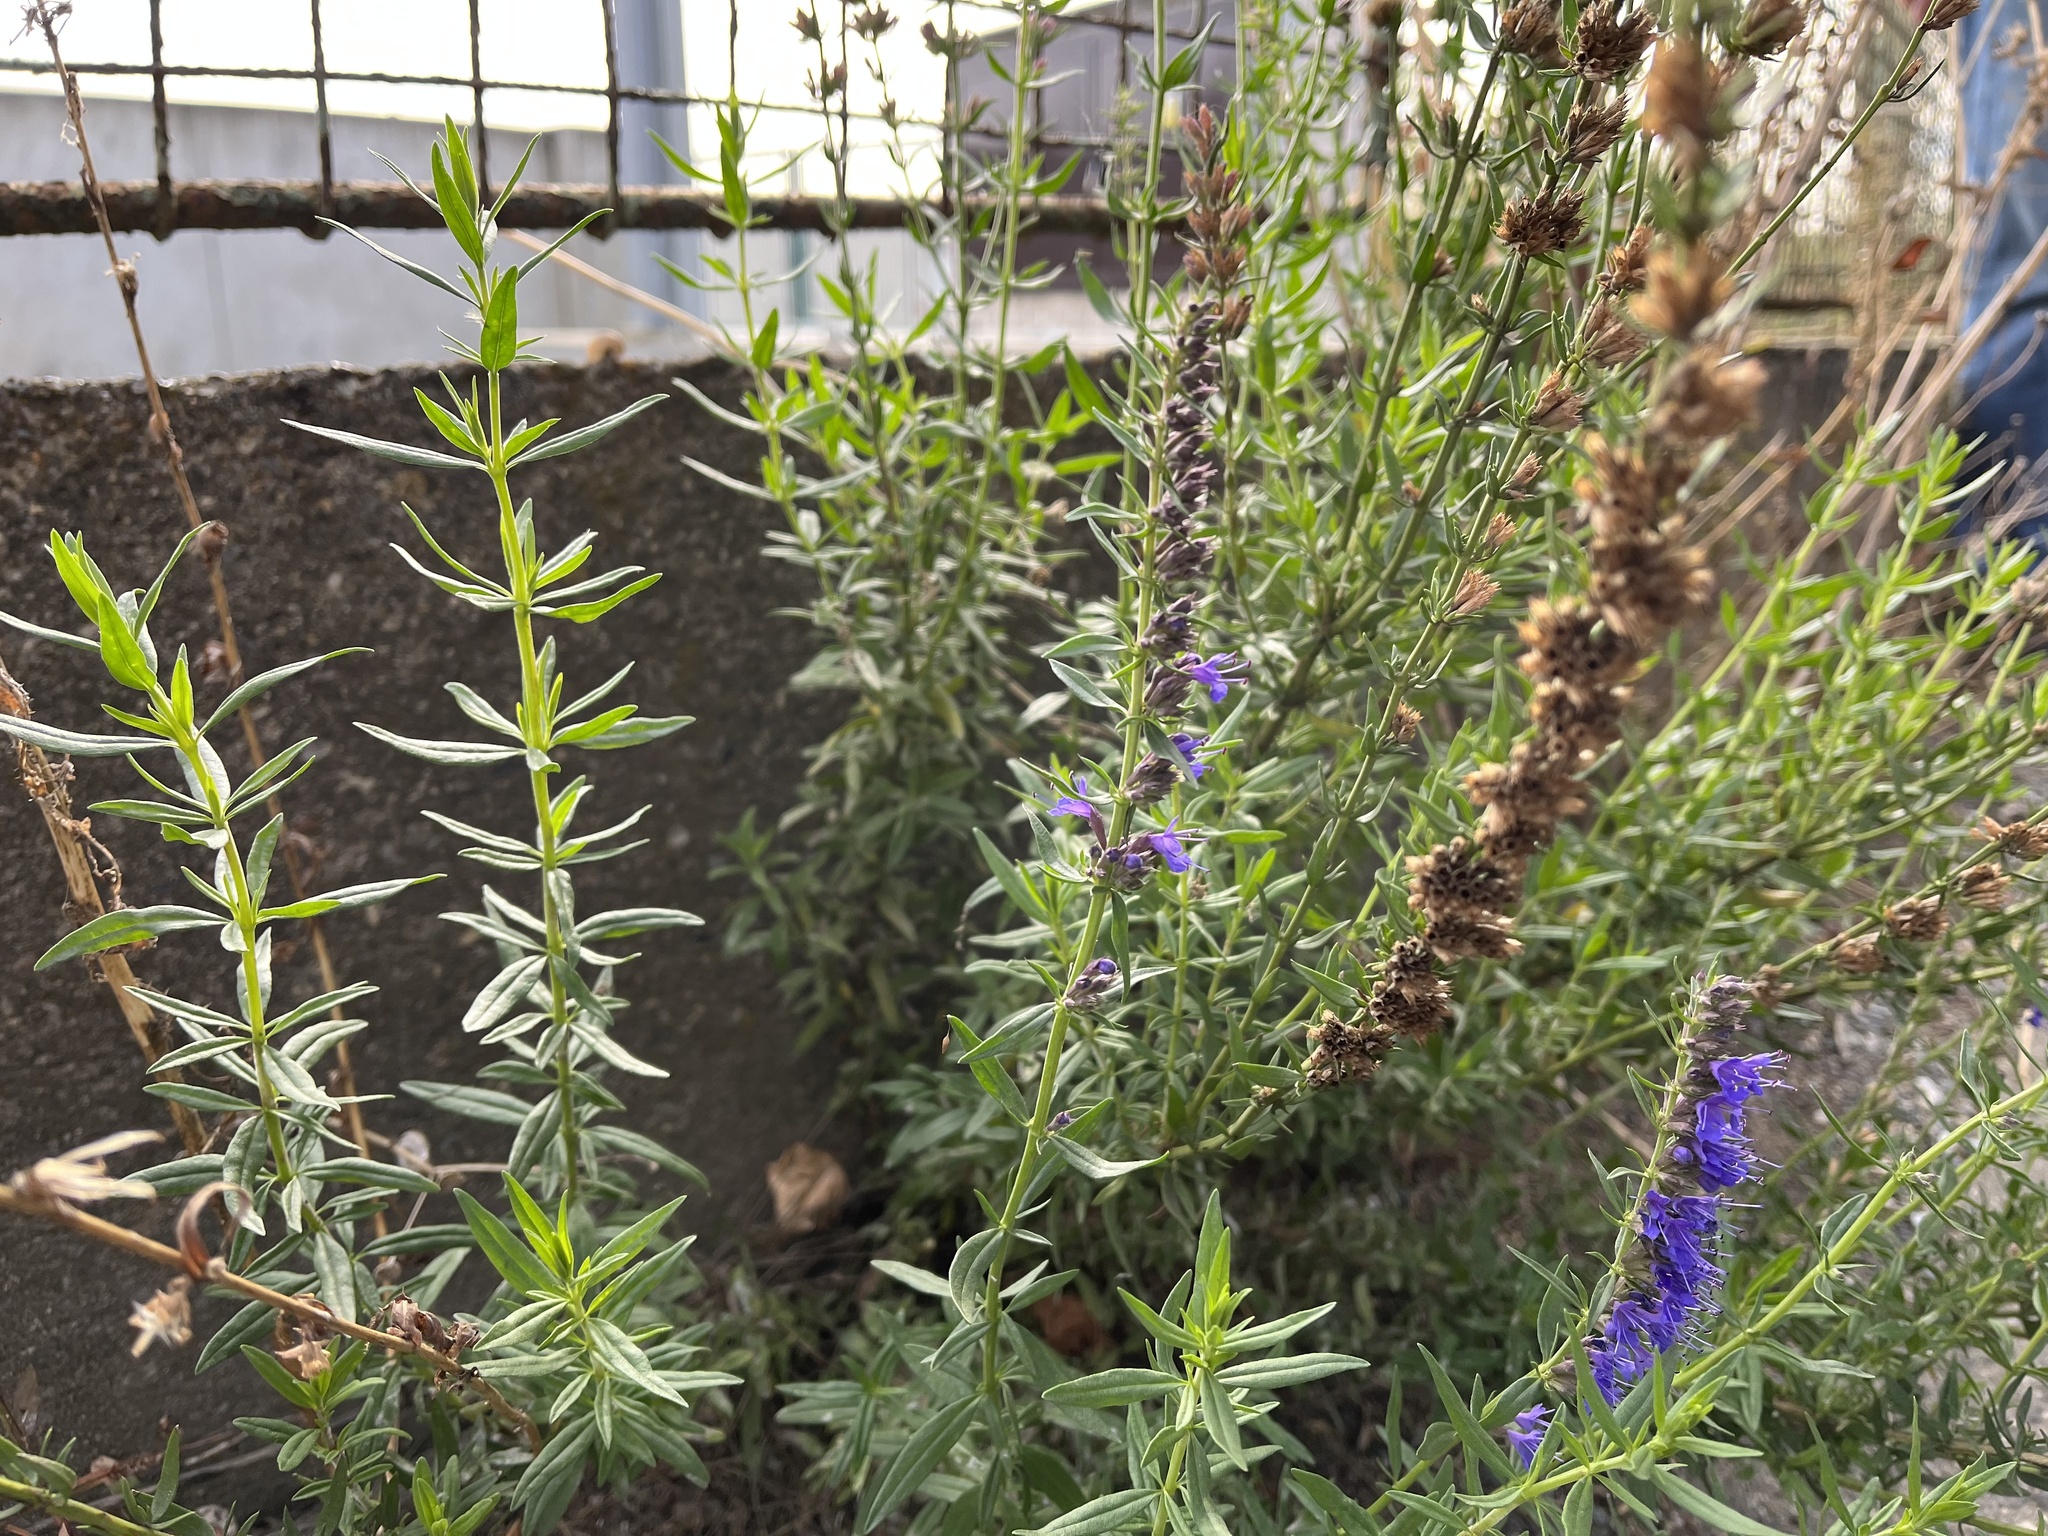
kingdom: Plantae
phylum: Tracheophyta
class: Magnoliopsida
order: Lamiales
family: Lamiaceae
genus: Hyssopus
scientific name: Hyssopus officinalis
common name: Hyssop
